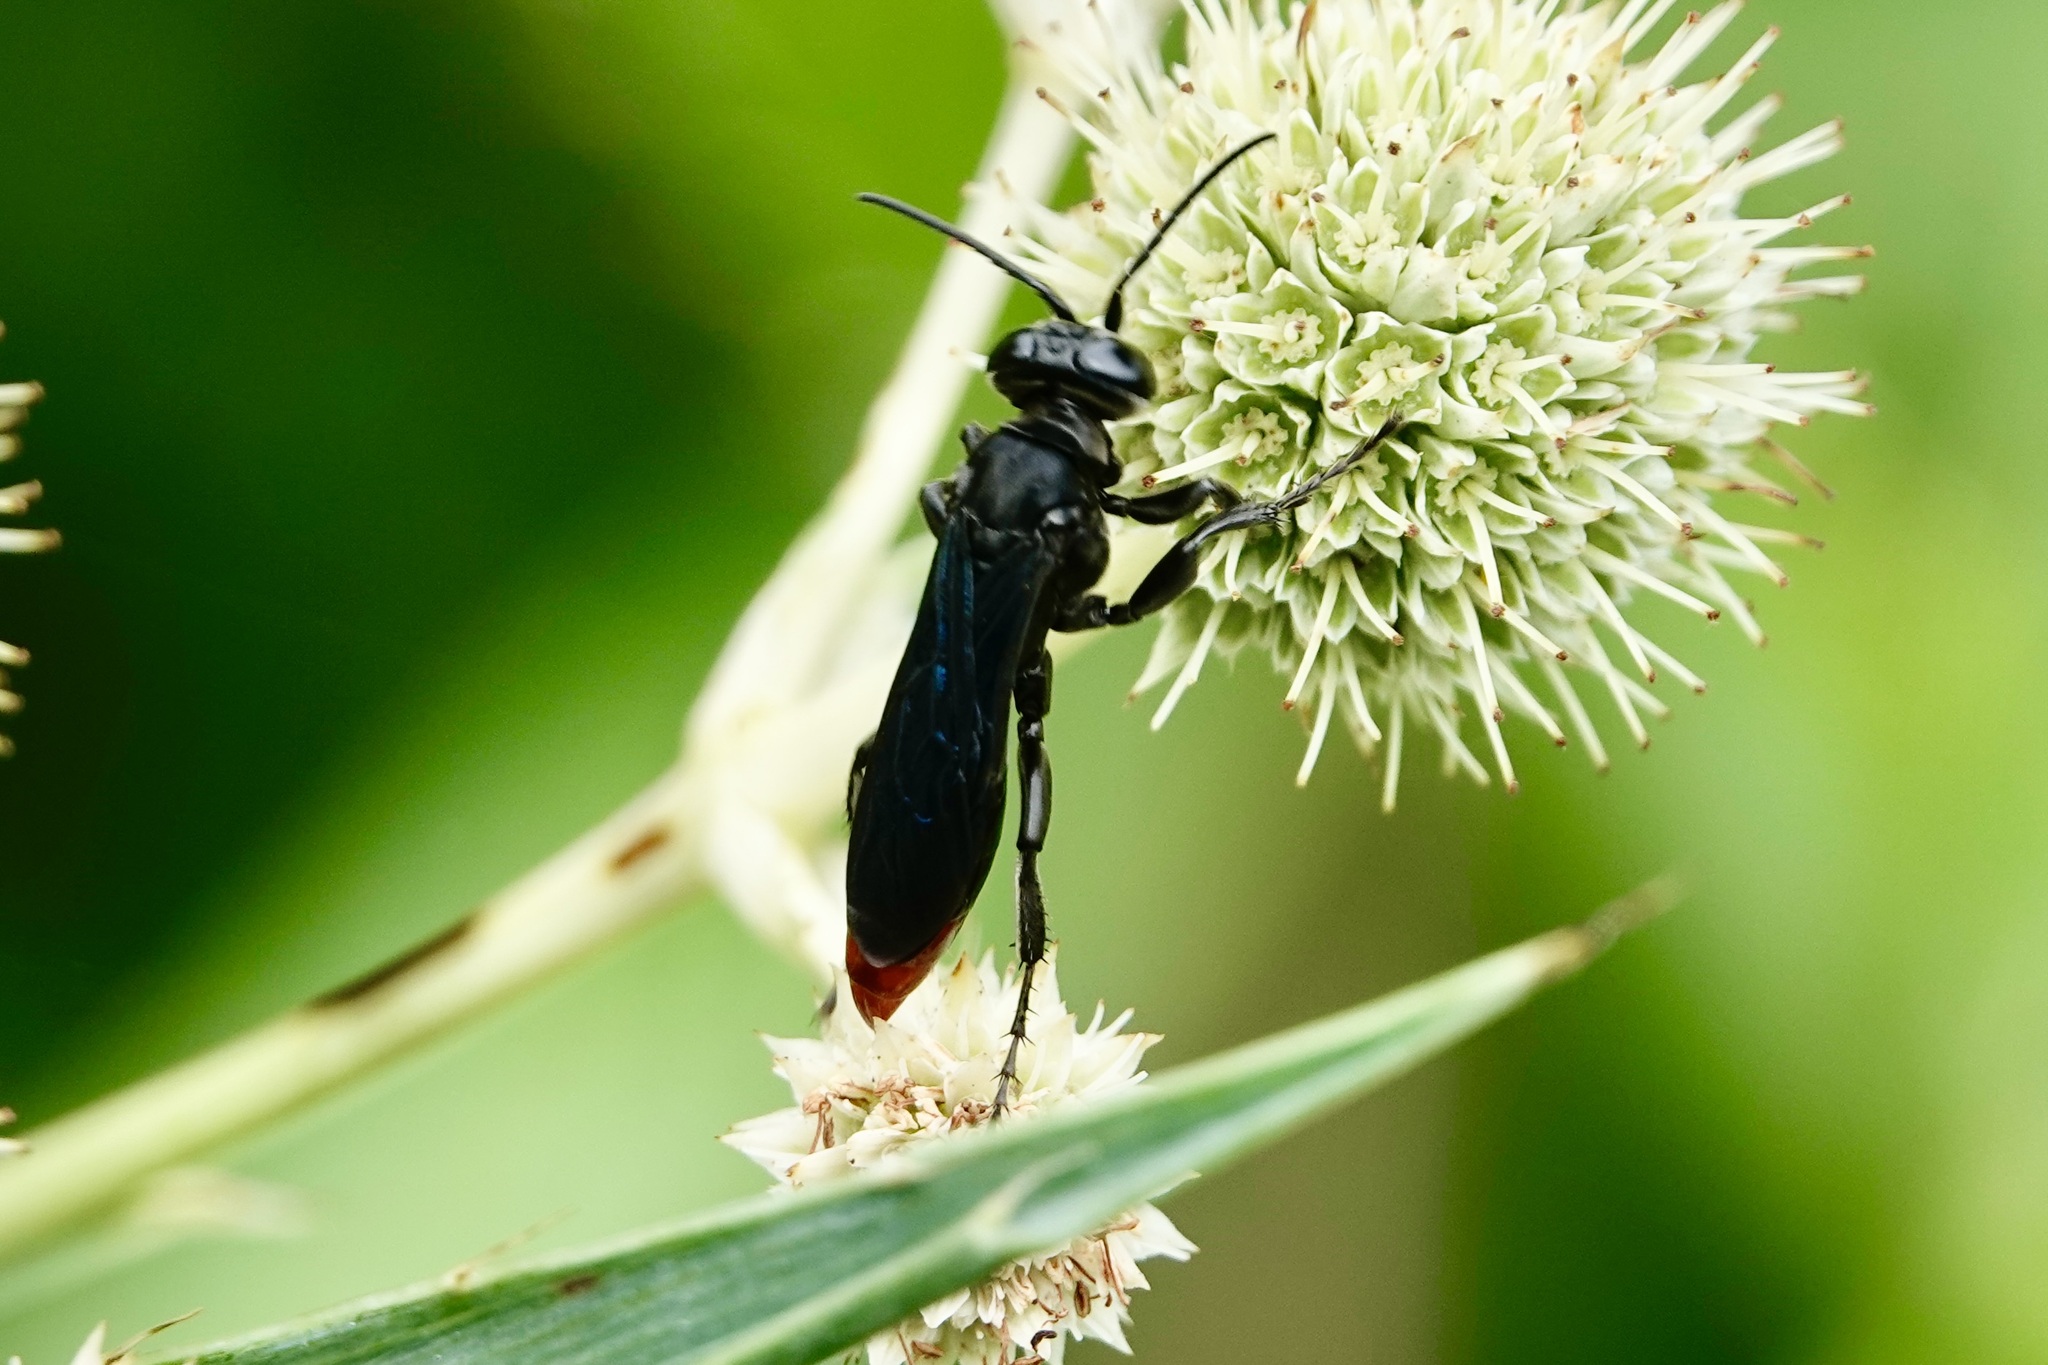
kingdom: Animalia
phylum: Arthropoda
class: Insecta
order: Hymenoptera
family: Crabronidae
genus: Larra
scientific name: Larra analis
